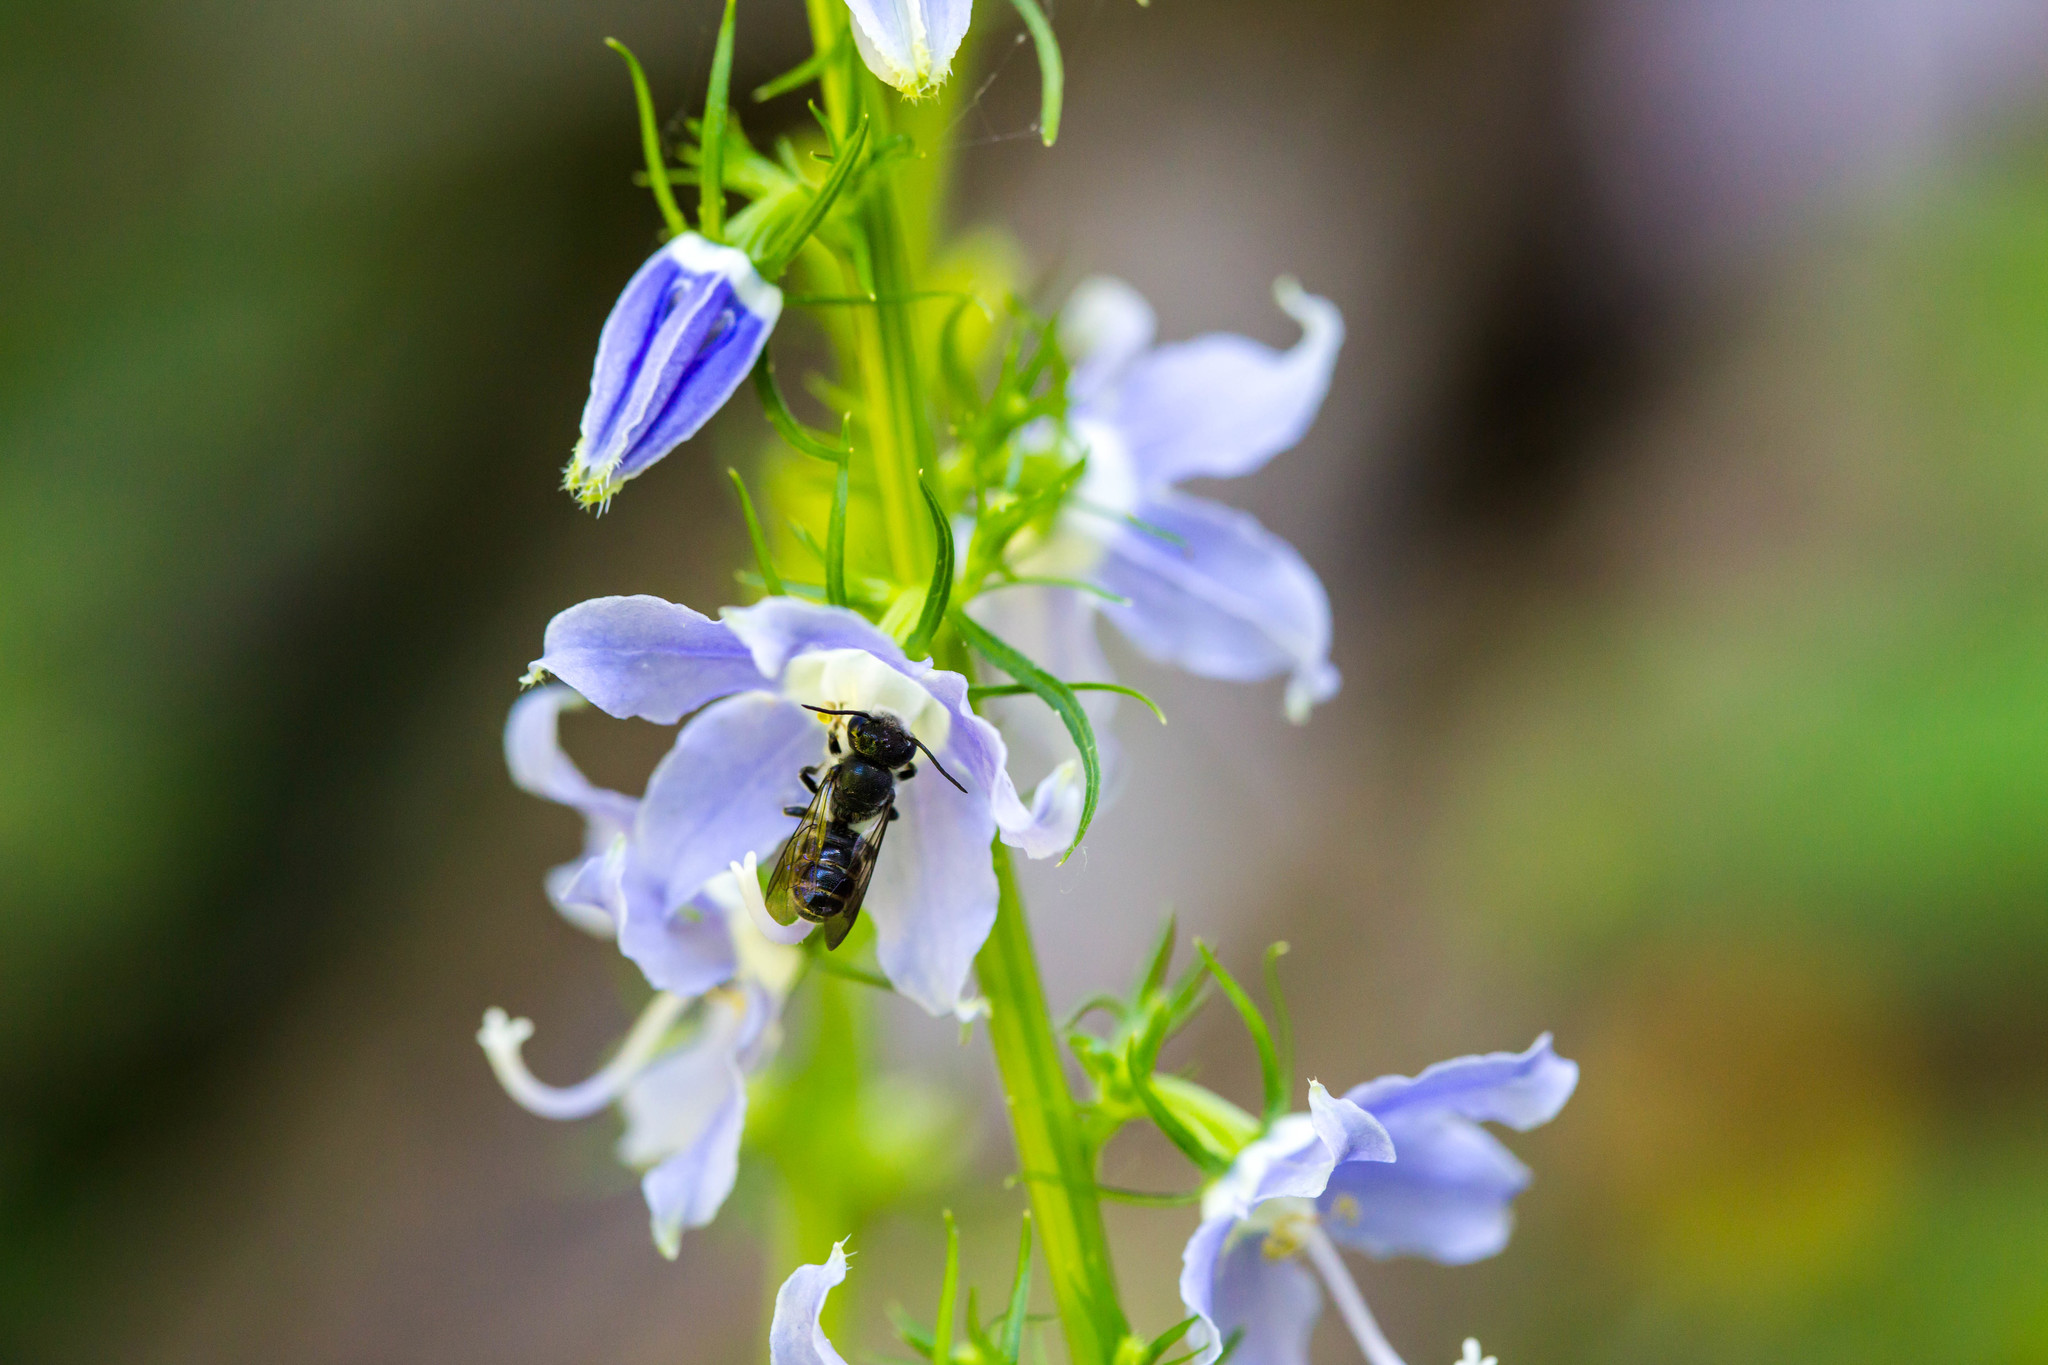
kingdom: Animalia
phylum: Arthropoda
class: Insecta
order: Hymenoptera
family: Megachilidae
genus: Megachile
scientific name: Megachile campanulae
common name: Bellflower resin bee
